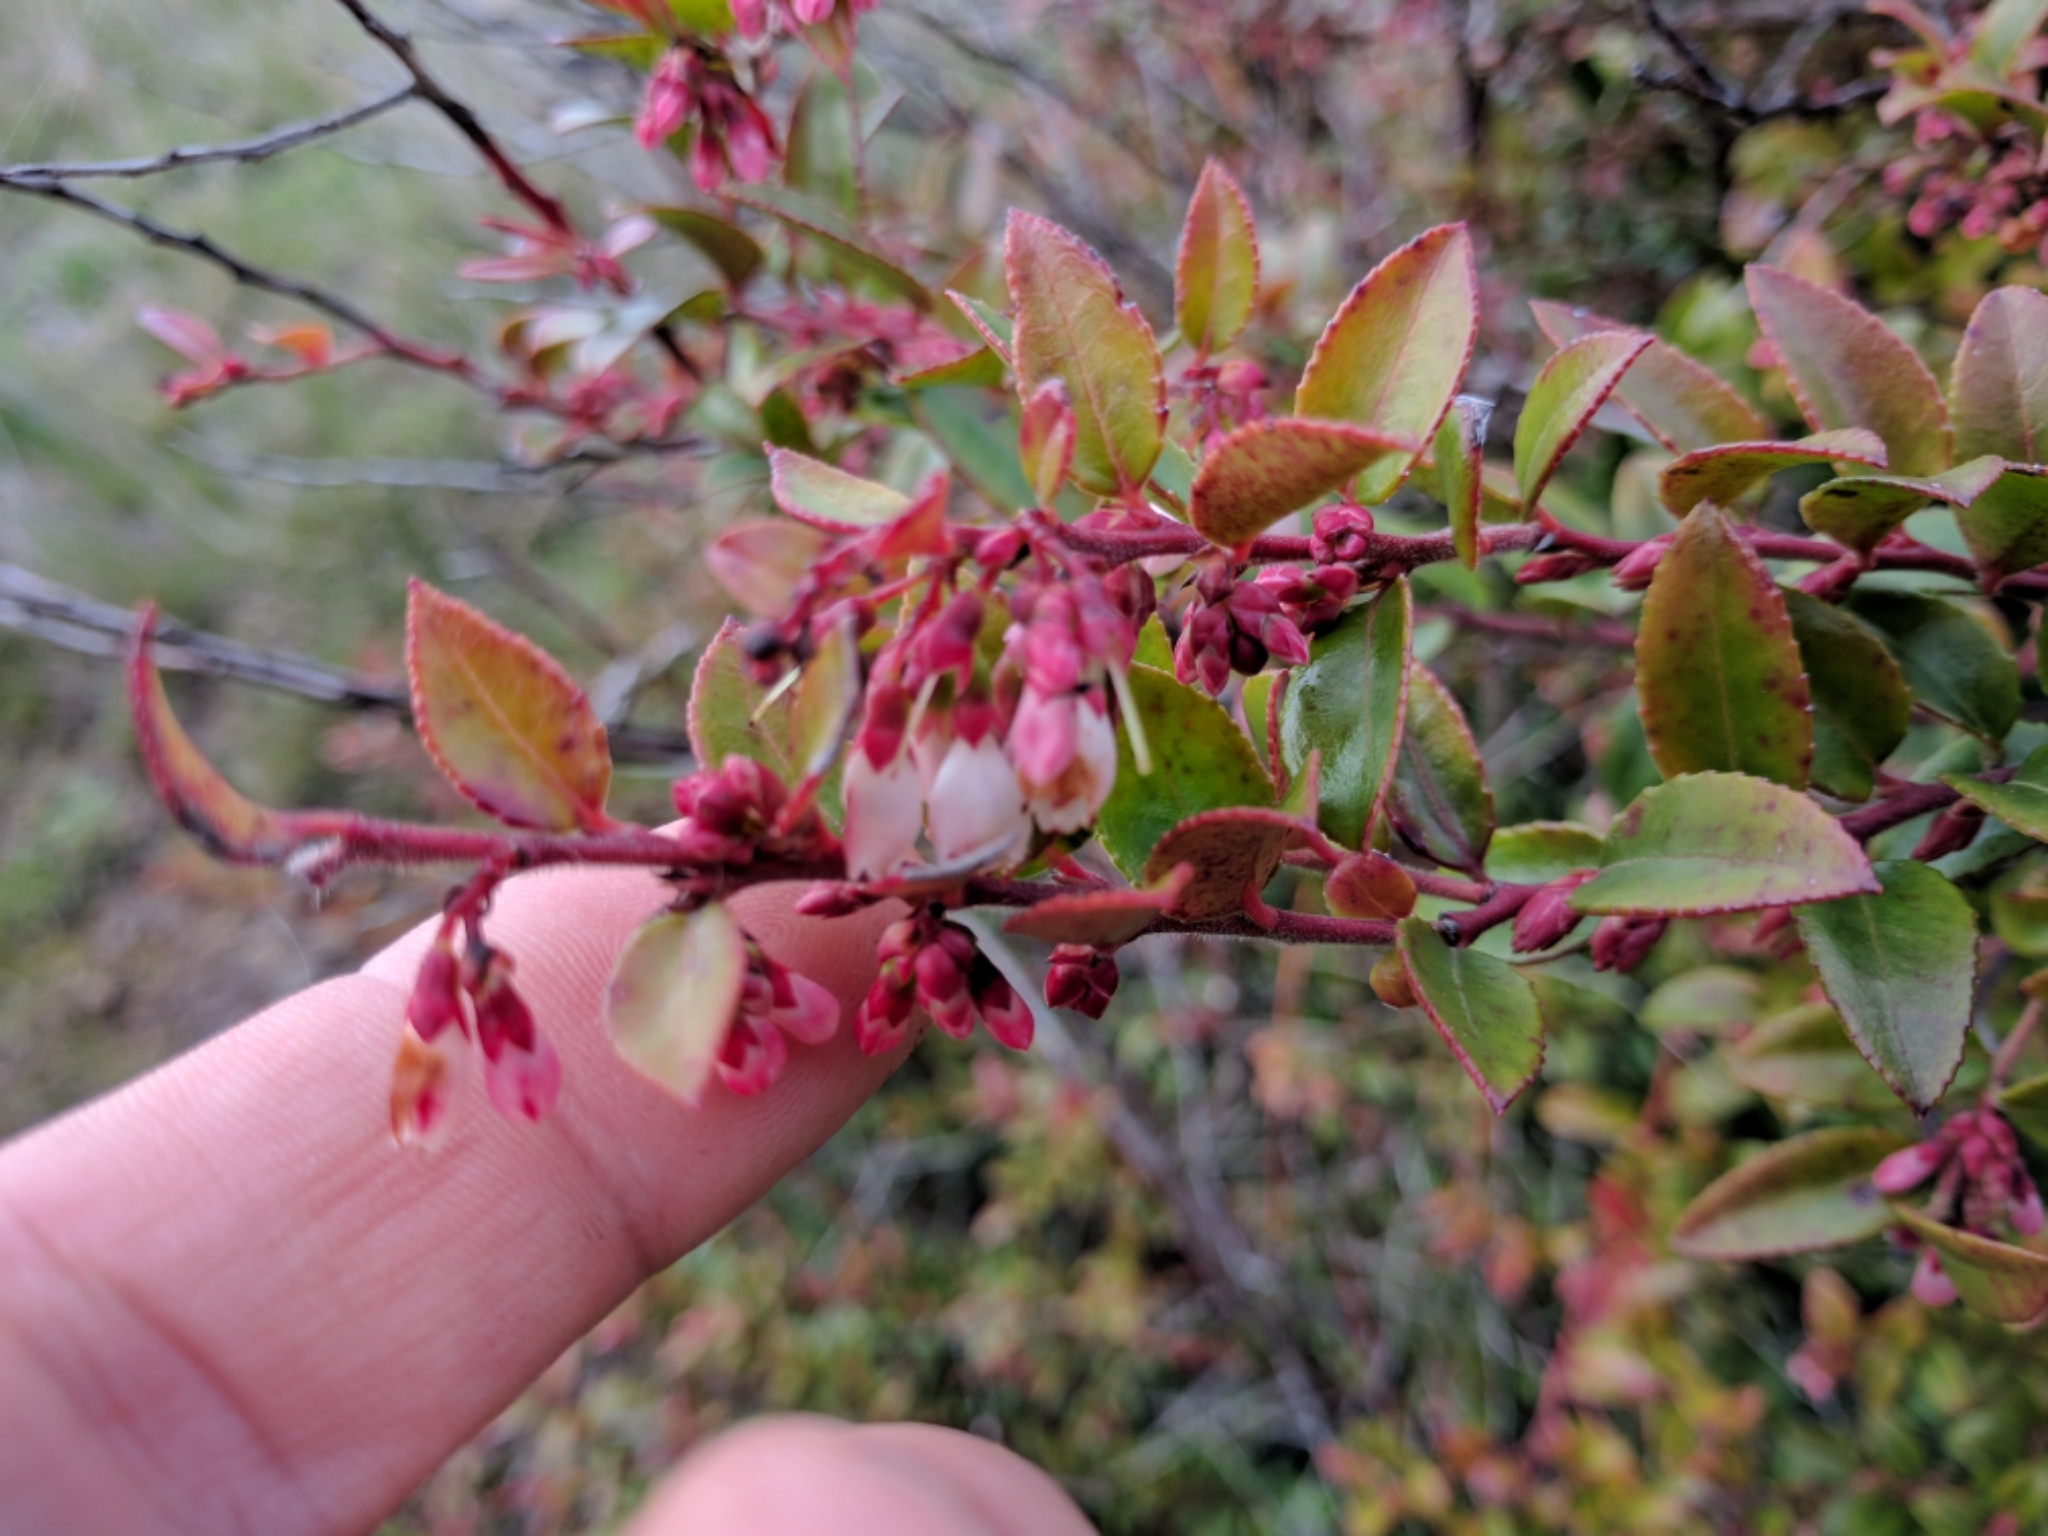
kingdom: Plantae
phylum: Tracheophyta
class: Magnoliopsida
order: Ericales
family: Ericaceae
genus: Vaccinium
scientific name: Vaccinium ovatum
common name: California-huckleberry
